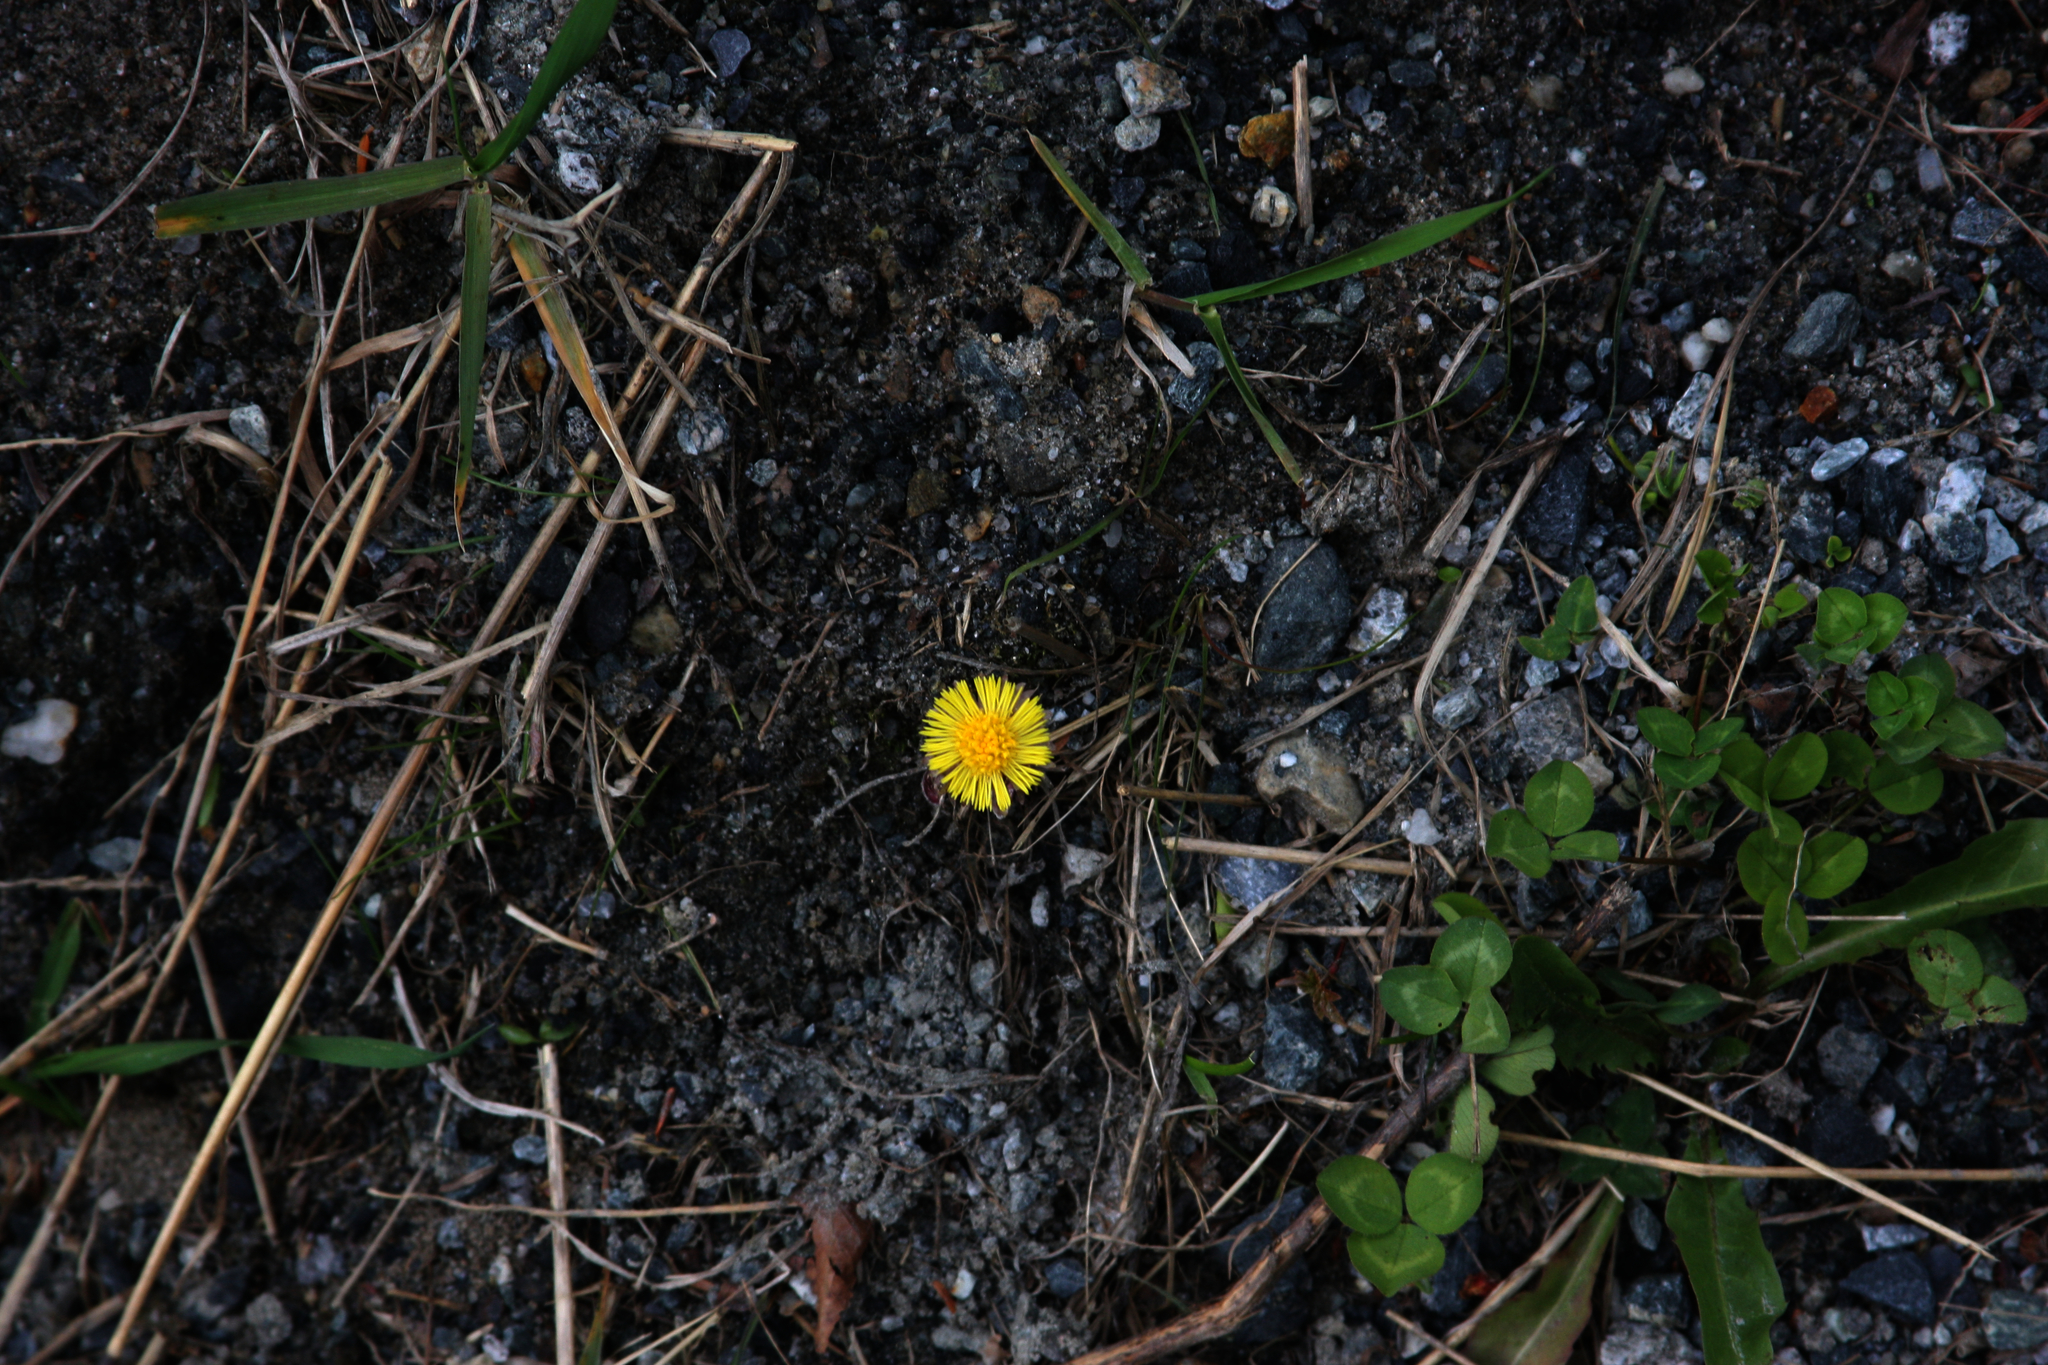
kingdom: Plantae
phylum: Tracheophyta
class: Magnoliopsida
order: Asterales
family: Asteraceae
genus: Tussilago
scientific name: Tussilago farfara
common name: Coltsfoot
